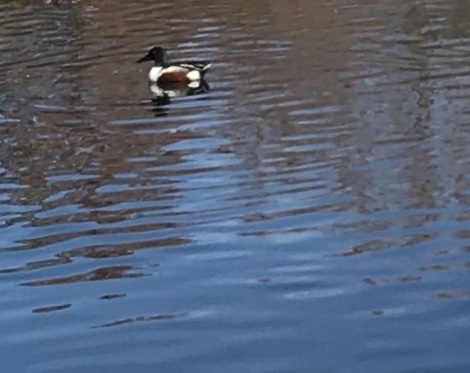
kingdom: Animalia
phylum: Chordata
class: Aves
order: Anseriformes
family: Anatidae
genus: Spatula
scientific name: Spatula clypeata
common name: Northern shoveler
